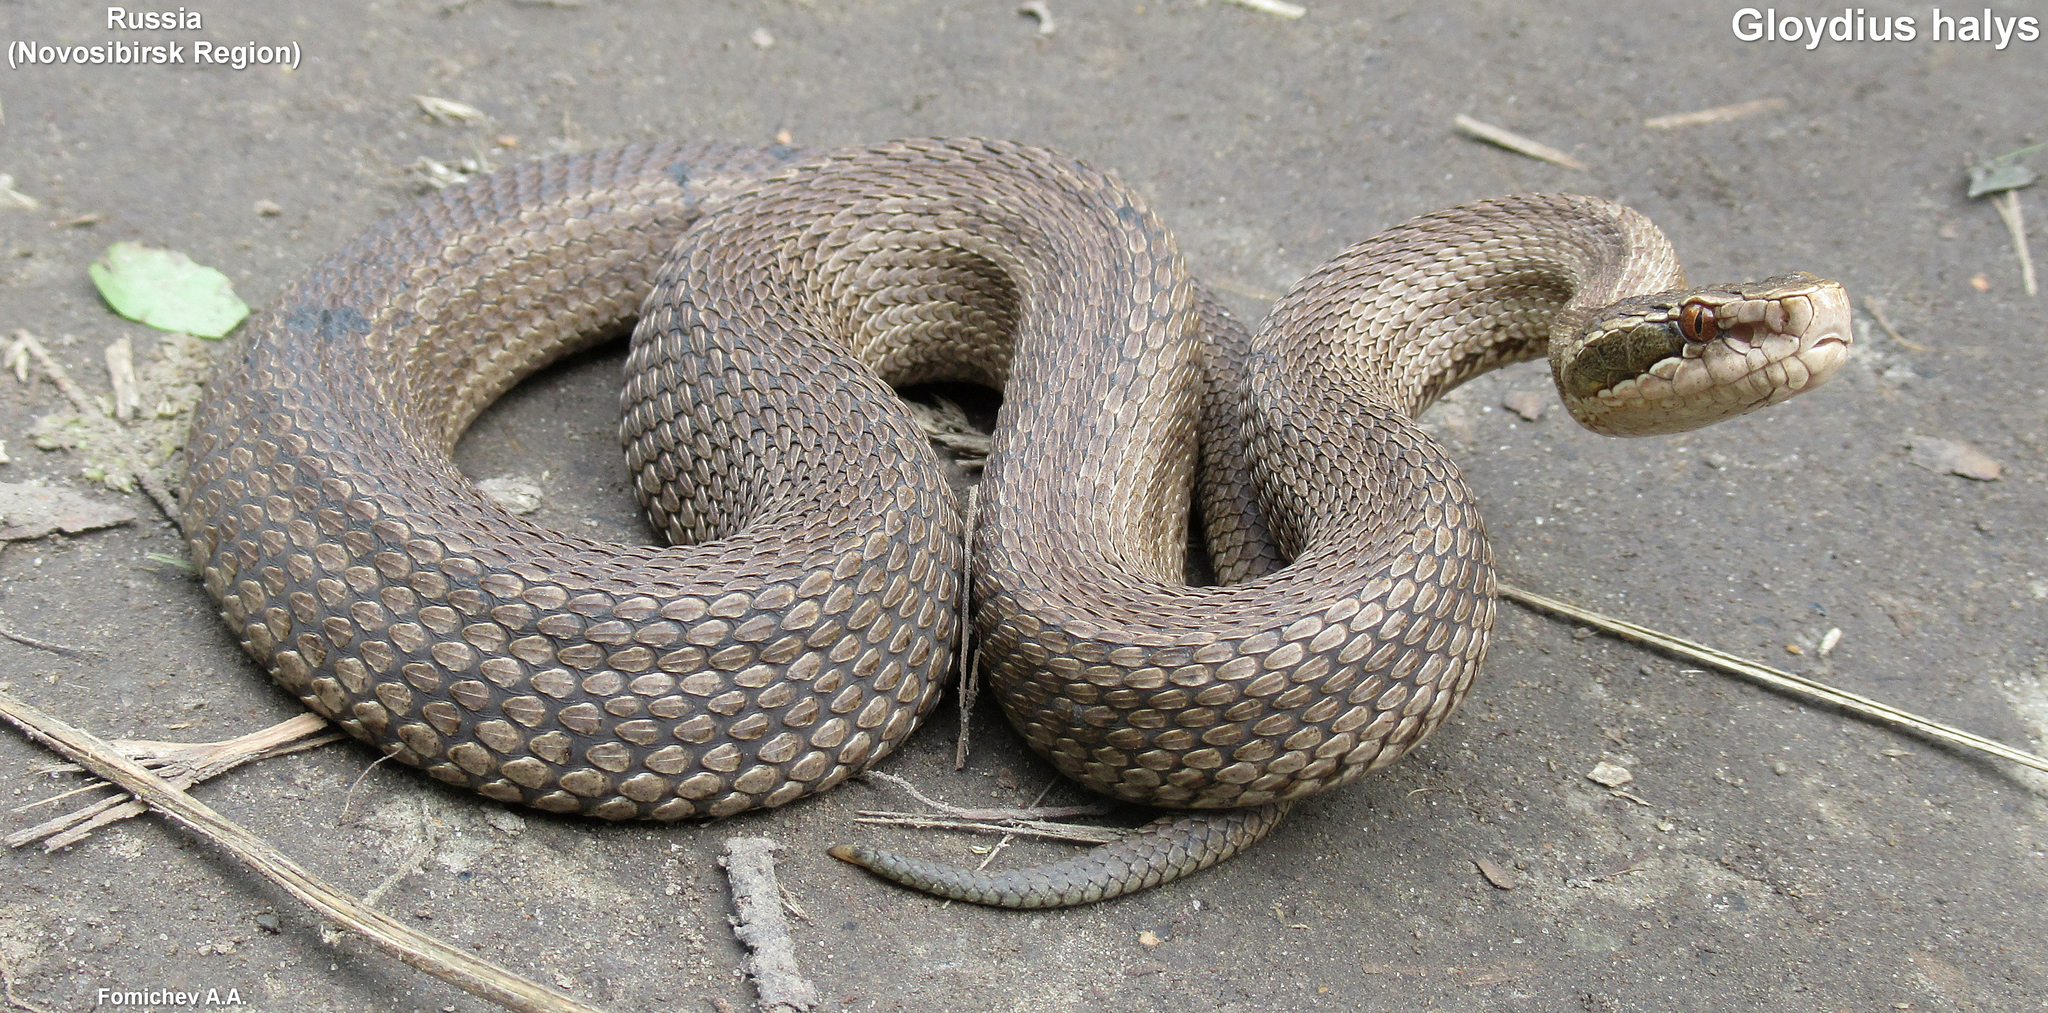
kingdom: Animalia
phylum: Chordata
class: Squamata
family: Viperidae
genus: Gloydius
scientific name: Gloydius halys
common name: Halys pit viper
